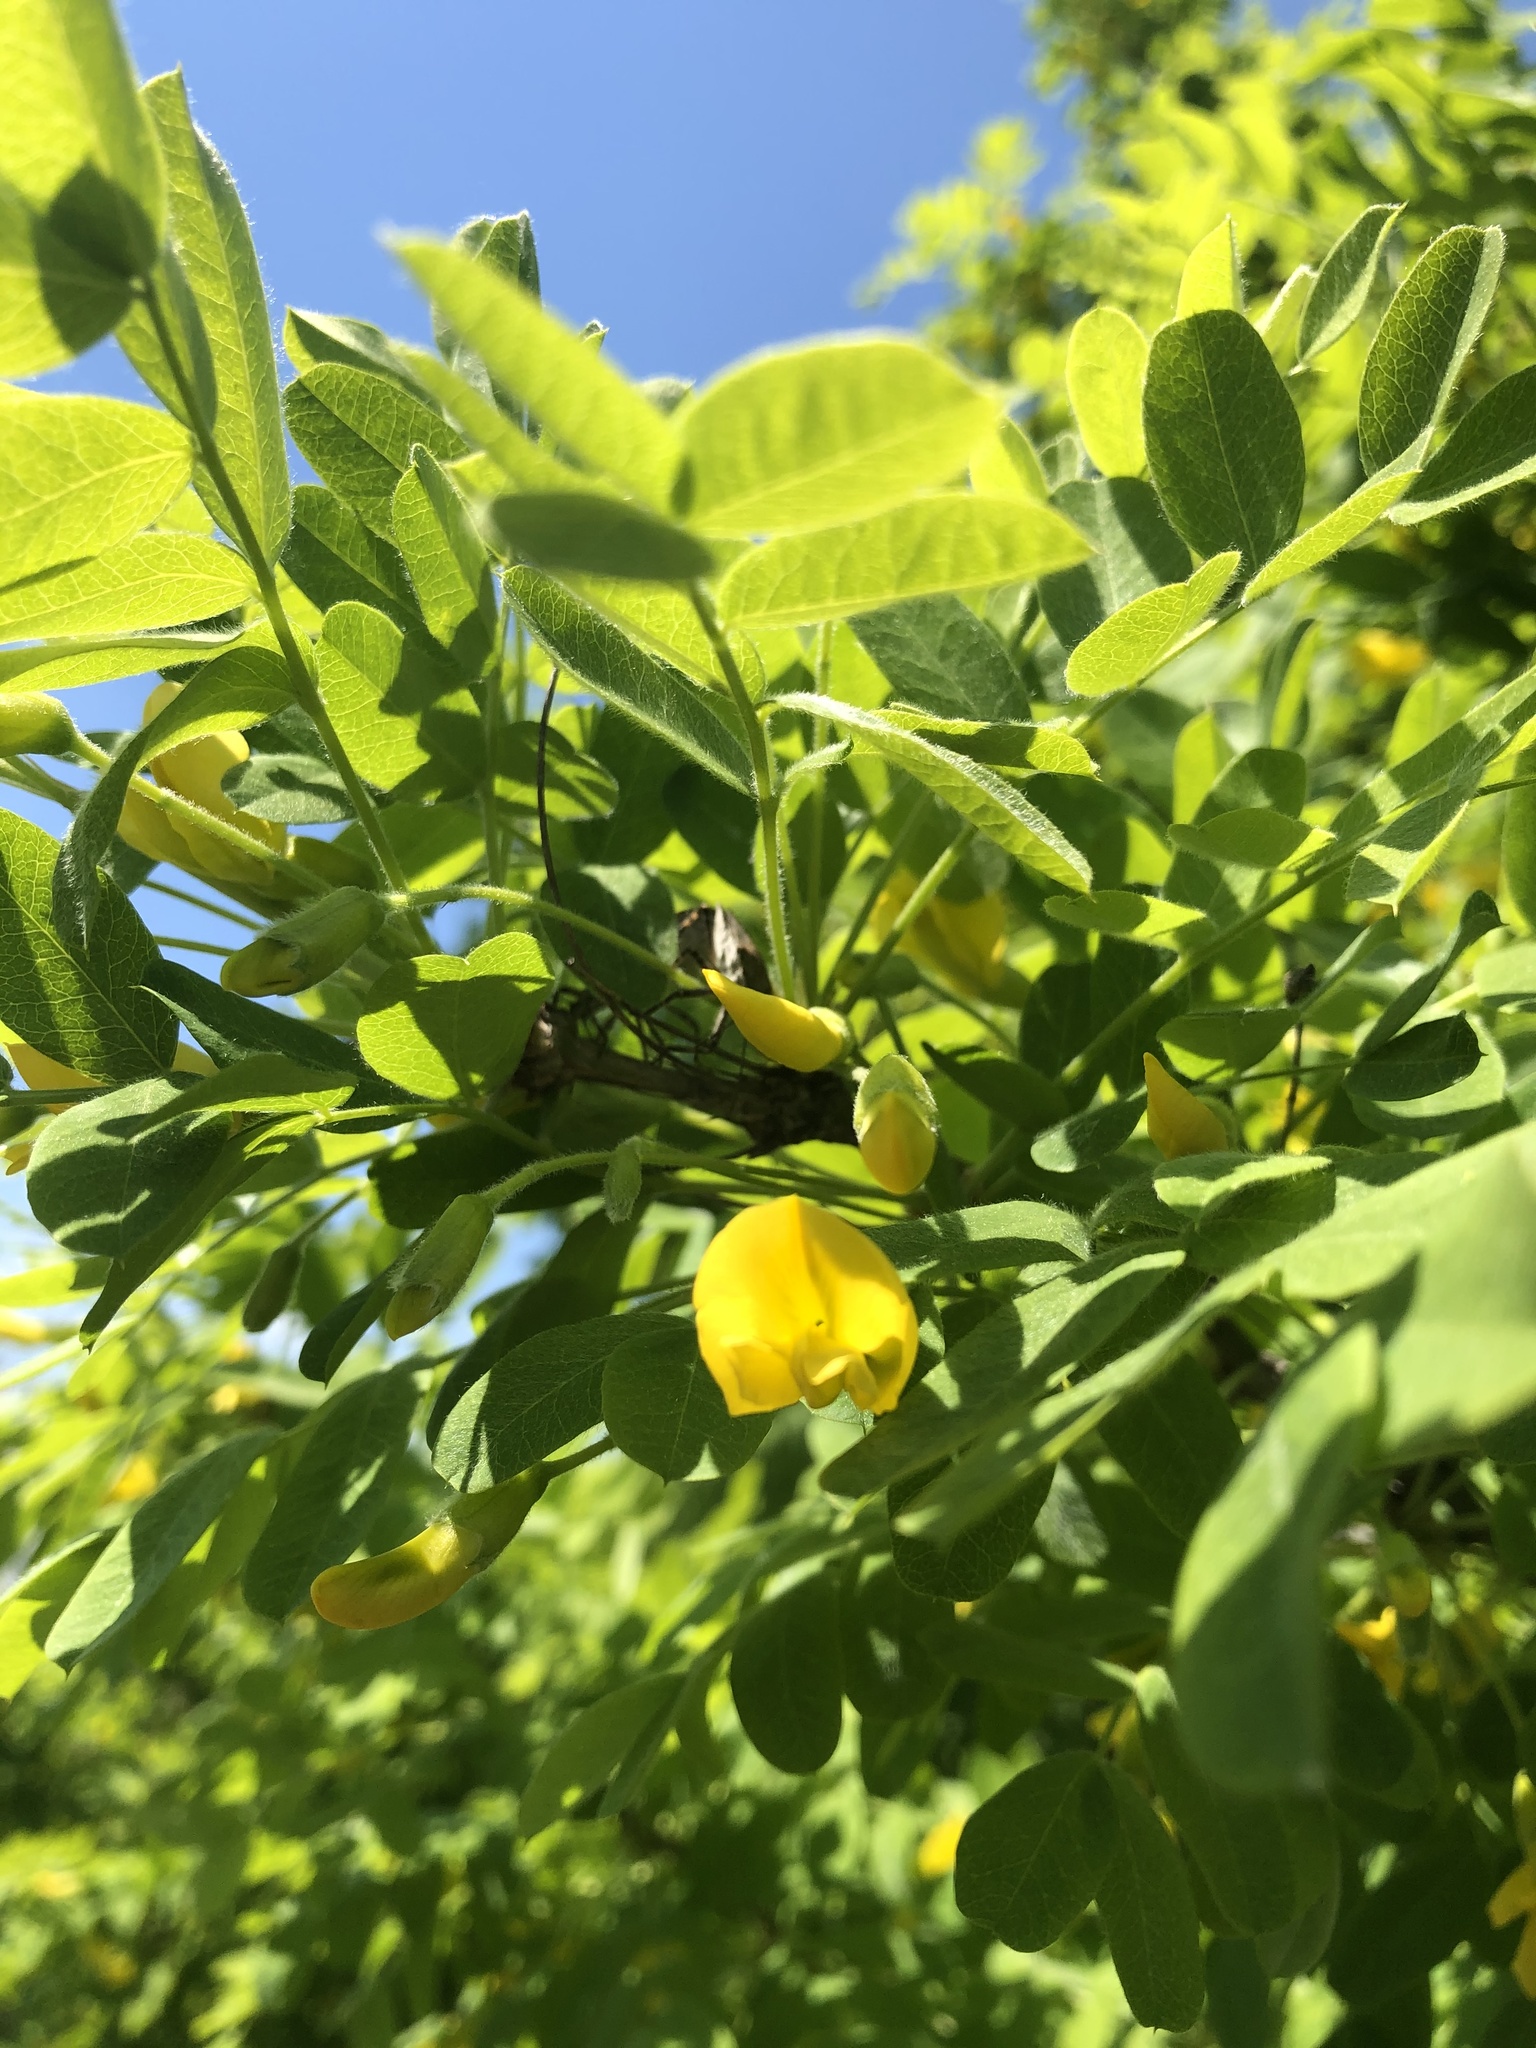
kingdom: Plantae
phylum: Tracheophyta
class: Magnoliopsida
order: Fabales
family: Fabaceae
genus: Caragana
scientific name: Caragana arborescens
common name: Siberian peashrub
